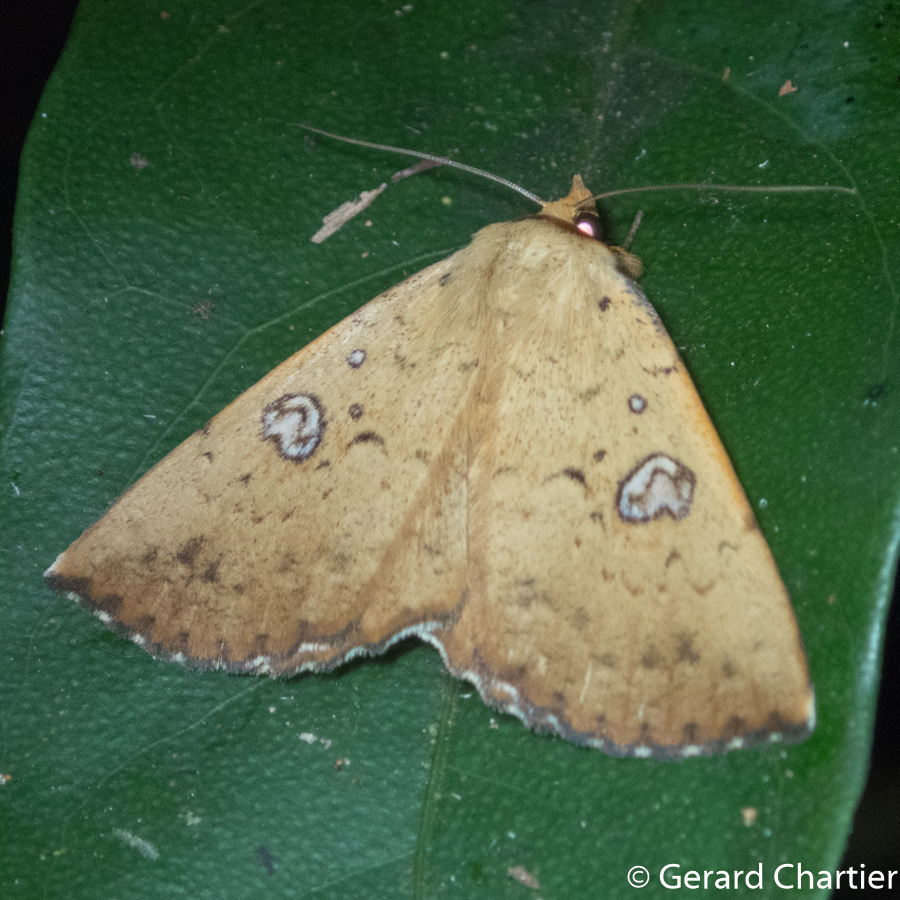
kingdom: Animalia
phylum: Arthropoda
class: Insecta
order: Lepidoptera
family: Erebidae
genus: Talariga
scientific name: Talariga capacior
